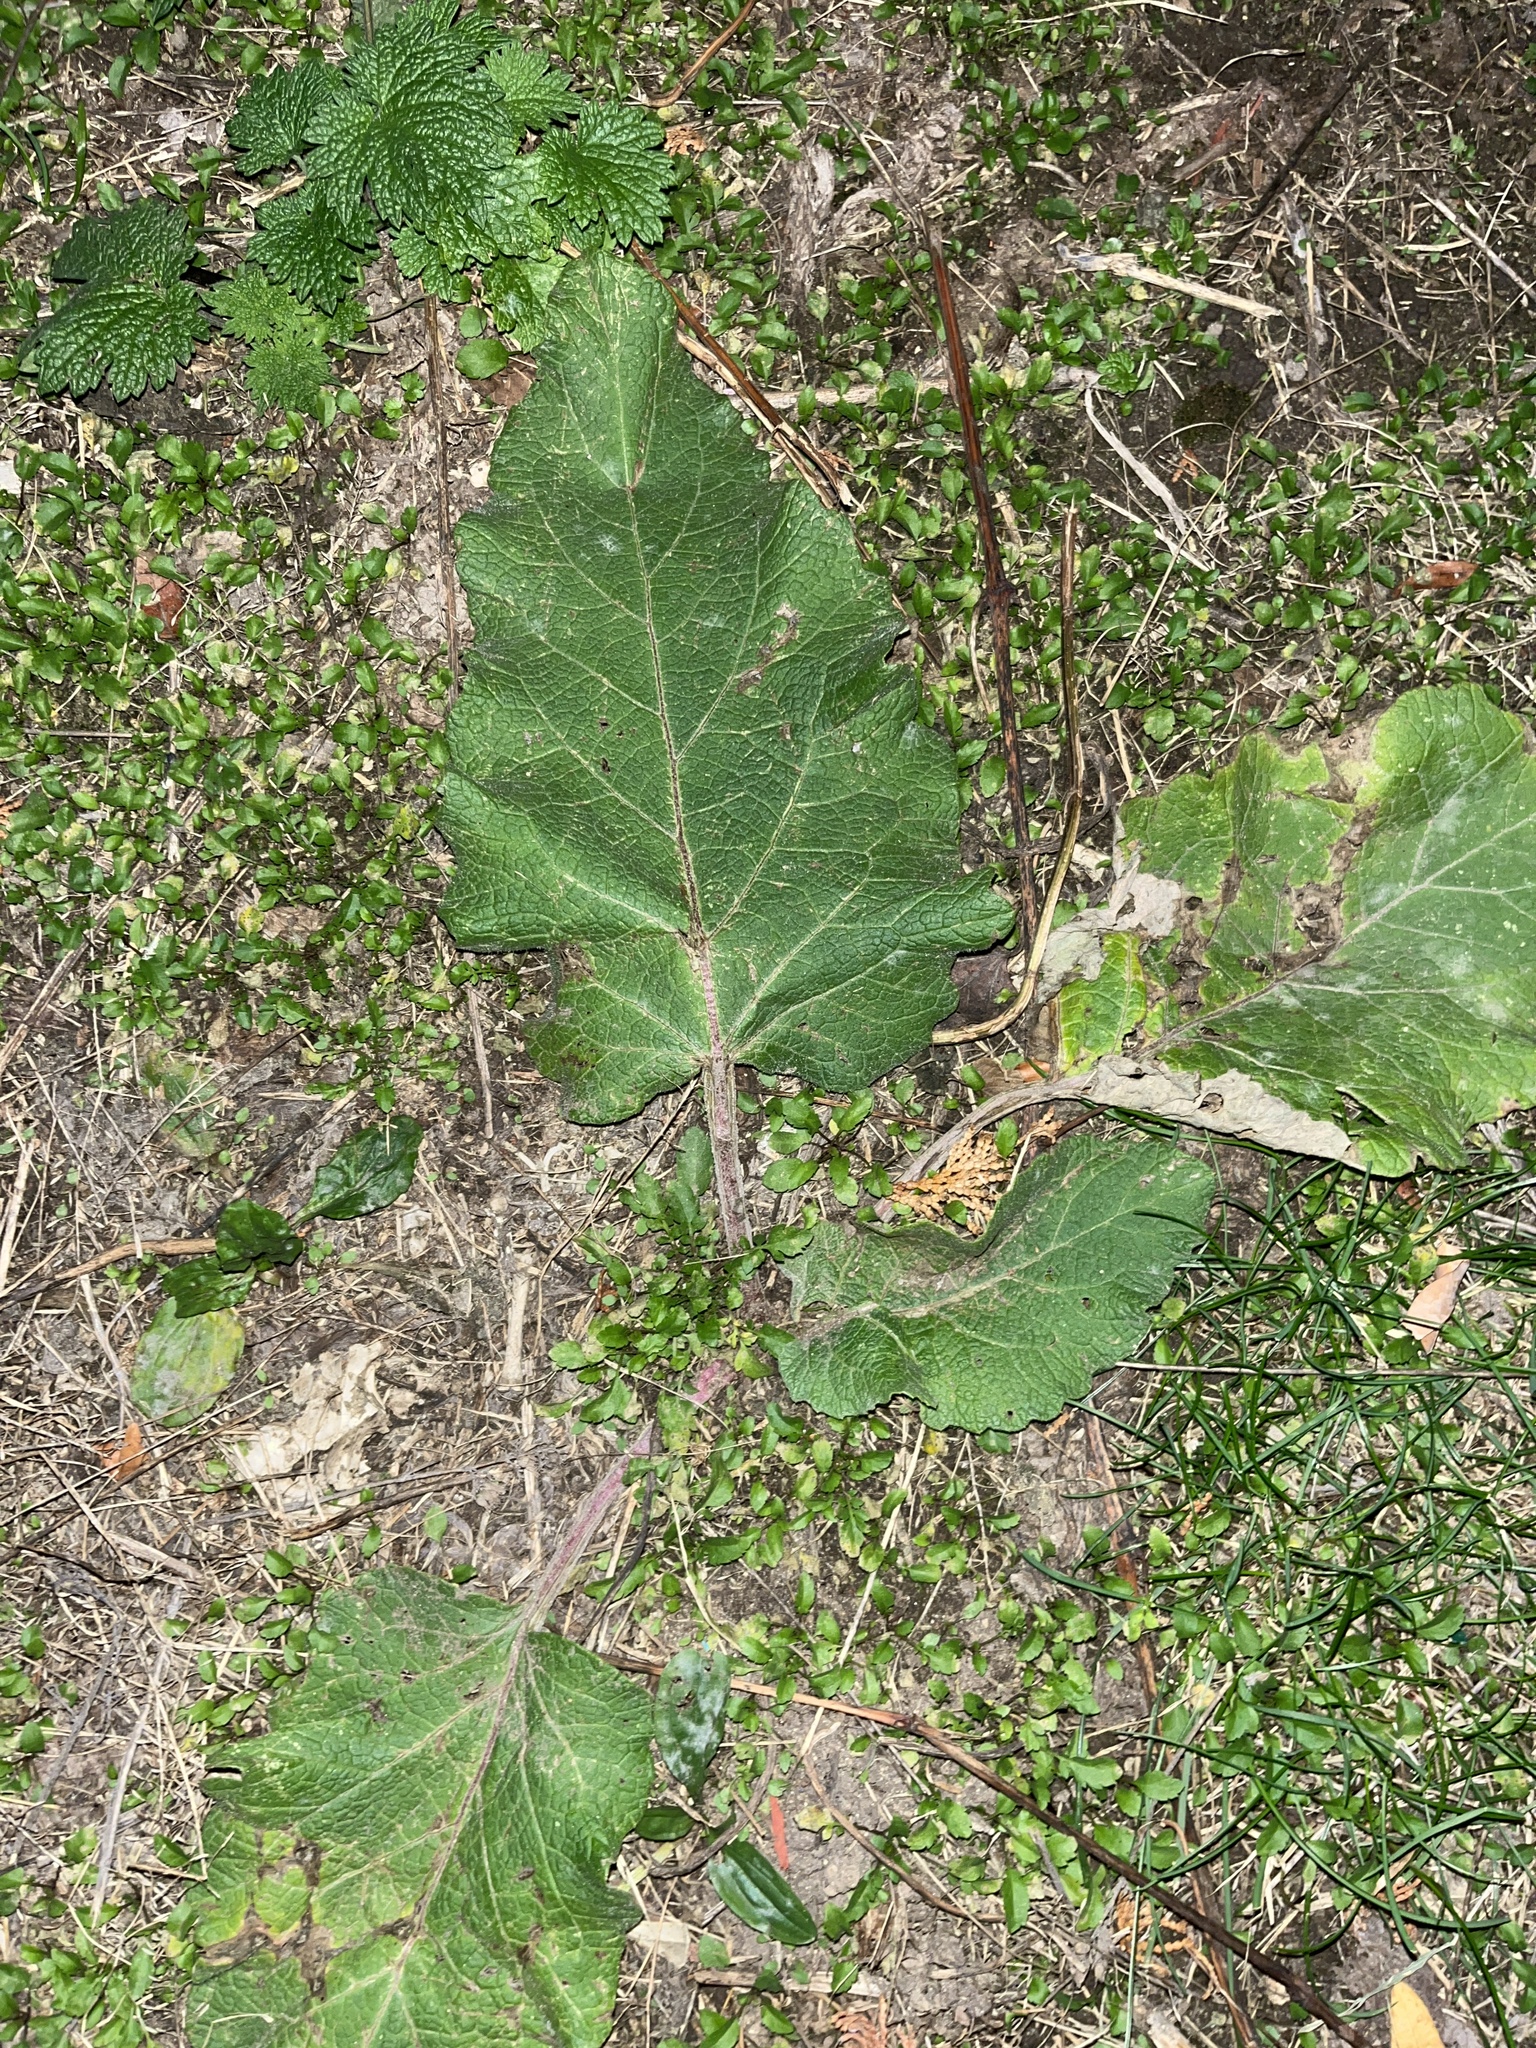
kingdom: Plantae
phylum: Tracheophyta
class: Magnoliopsida
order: Asterales
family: Asteraceae
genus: Arctium
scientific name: Arctium
